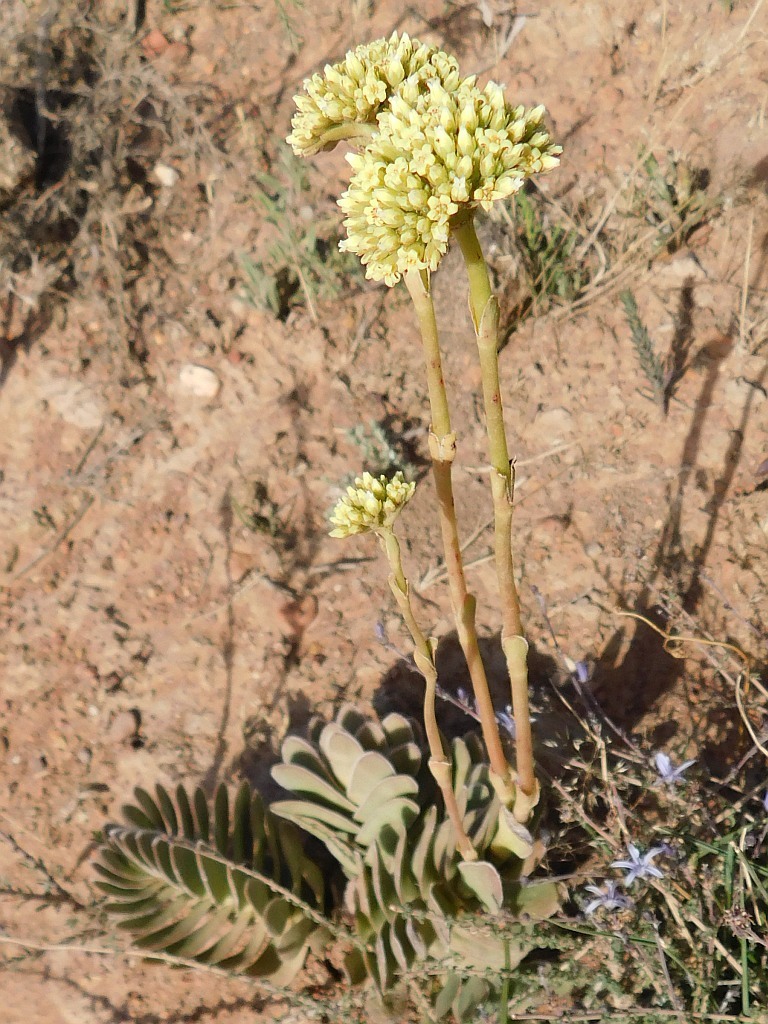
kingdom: Plantae
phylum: Tracheophyta
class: Magnoliopsida
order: Saxifragales
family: Crassulaceae
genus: Crassula
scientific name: Crassula ciliata
